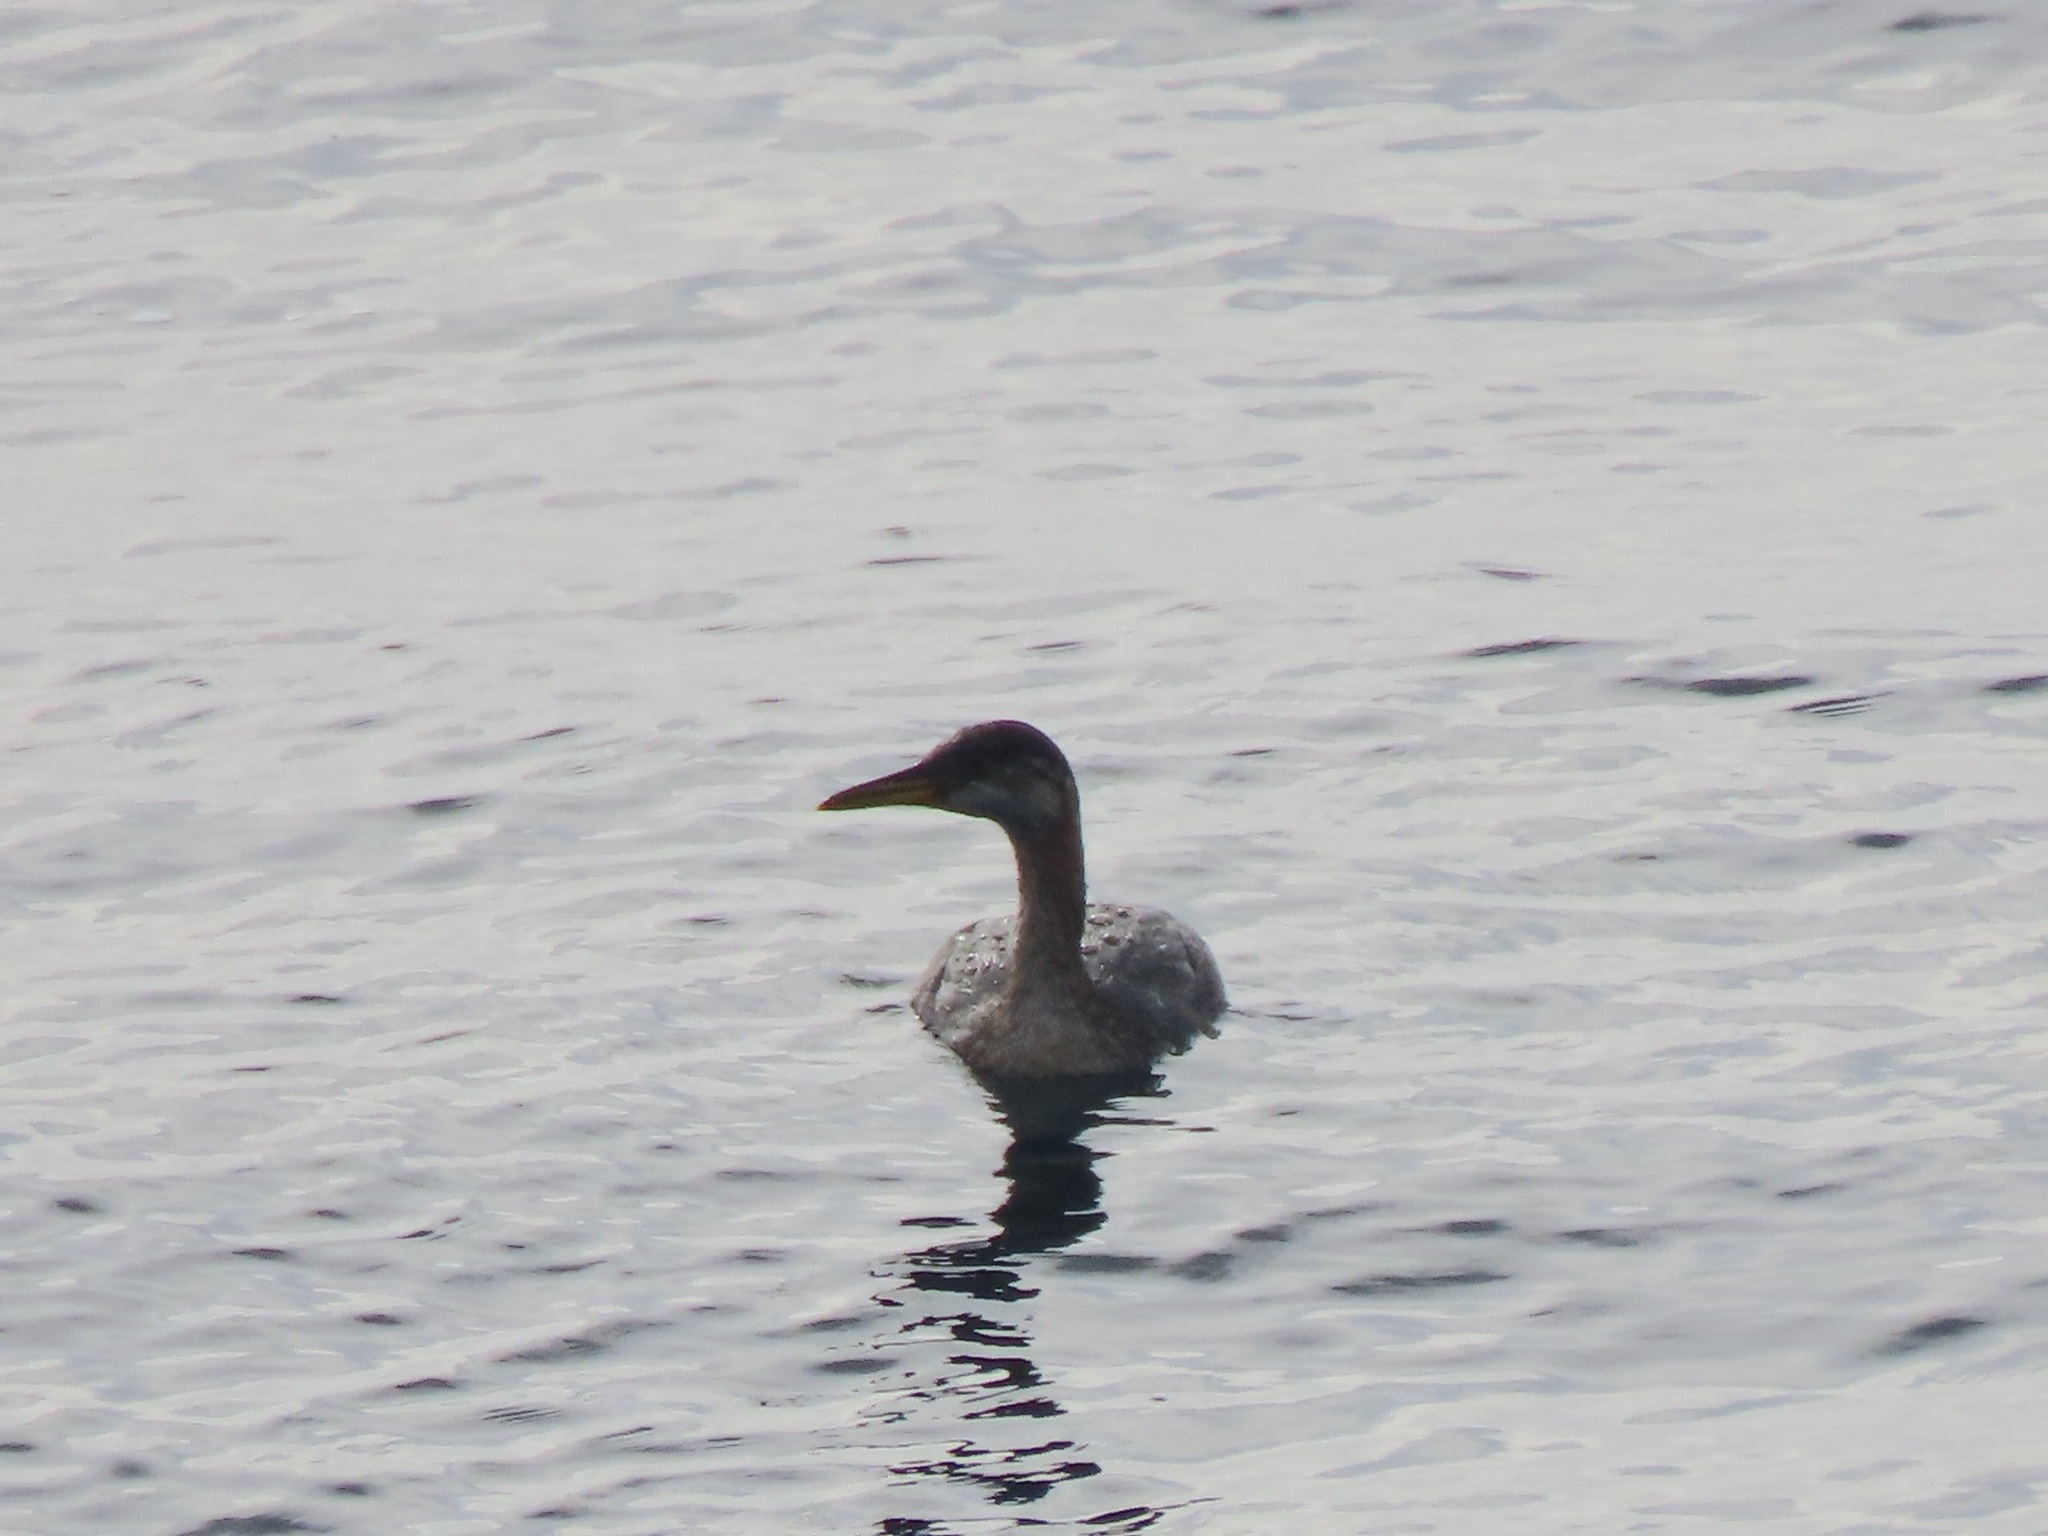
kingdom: Animalia
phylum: Chordata
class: Aves
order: Podicipediformes
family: Podicipedidae
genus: Podiceps
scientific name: Podiceps grisegena
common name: Red-necked grebe
